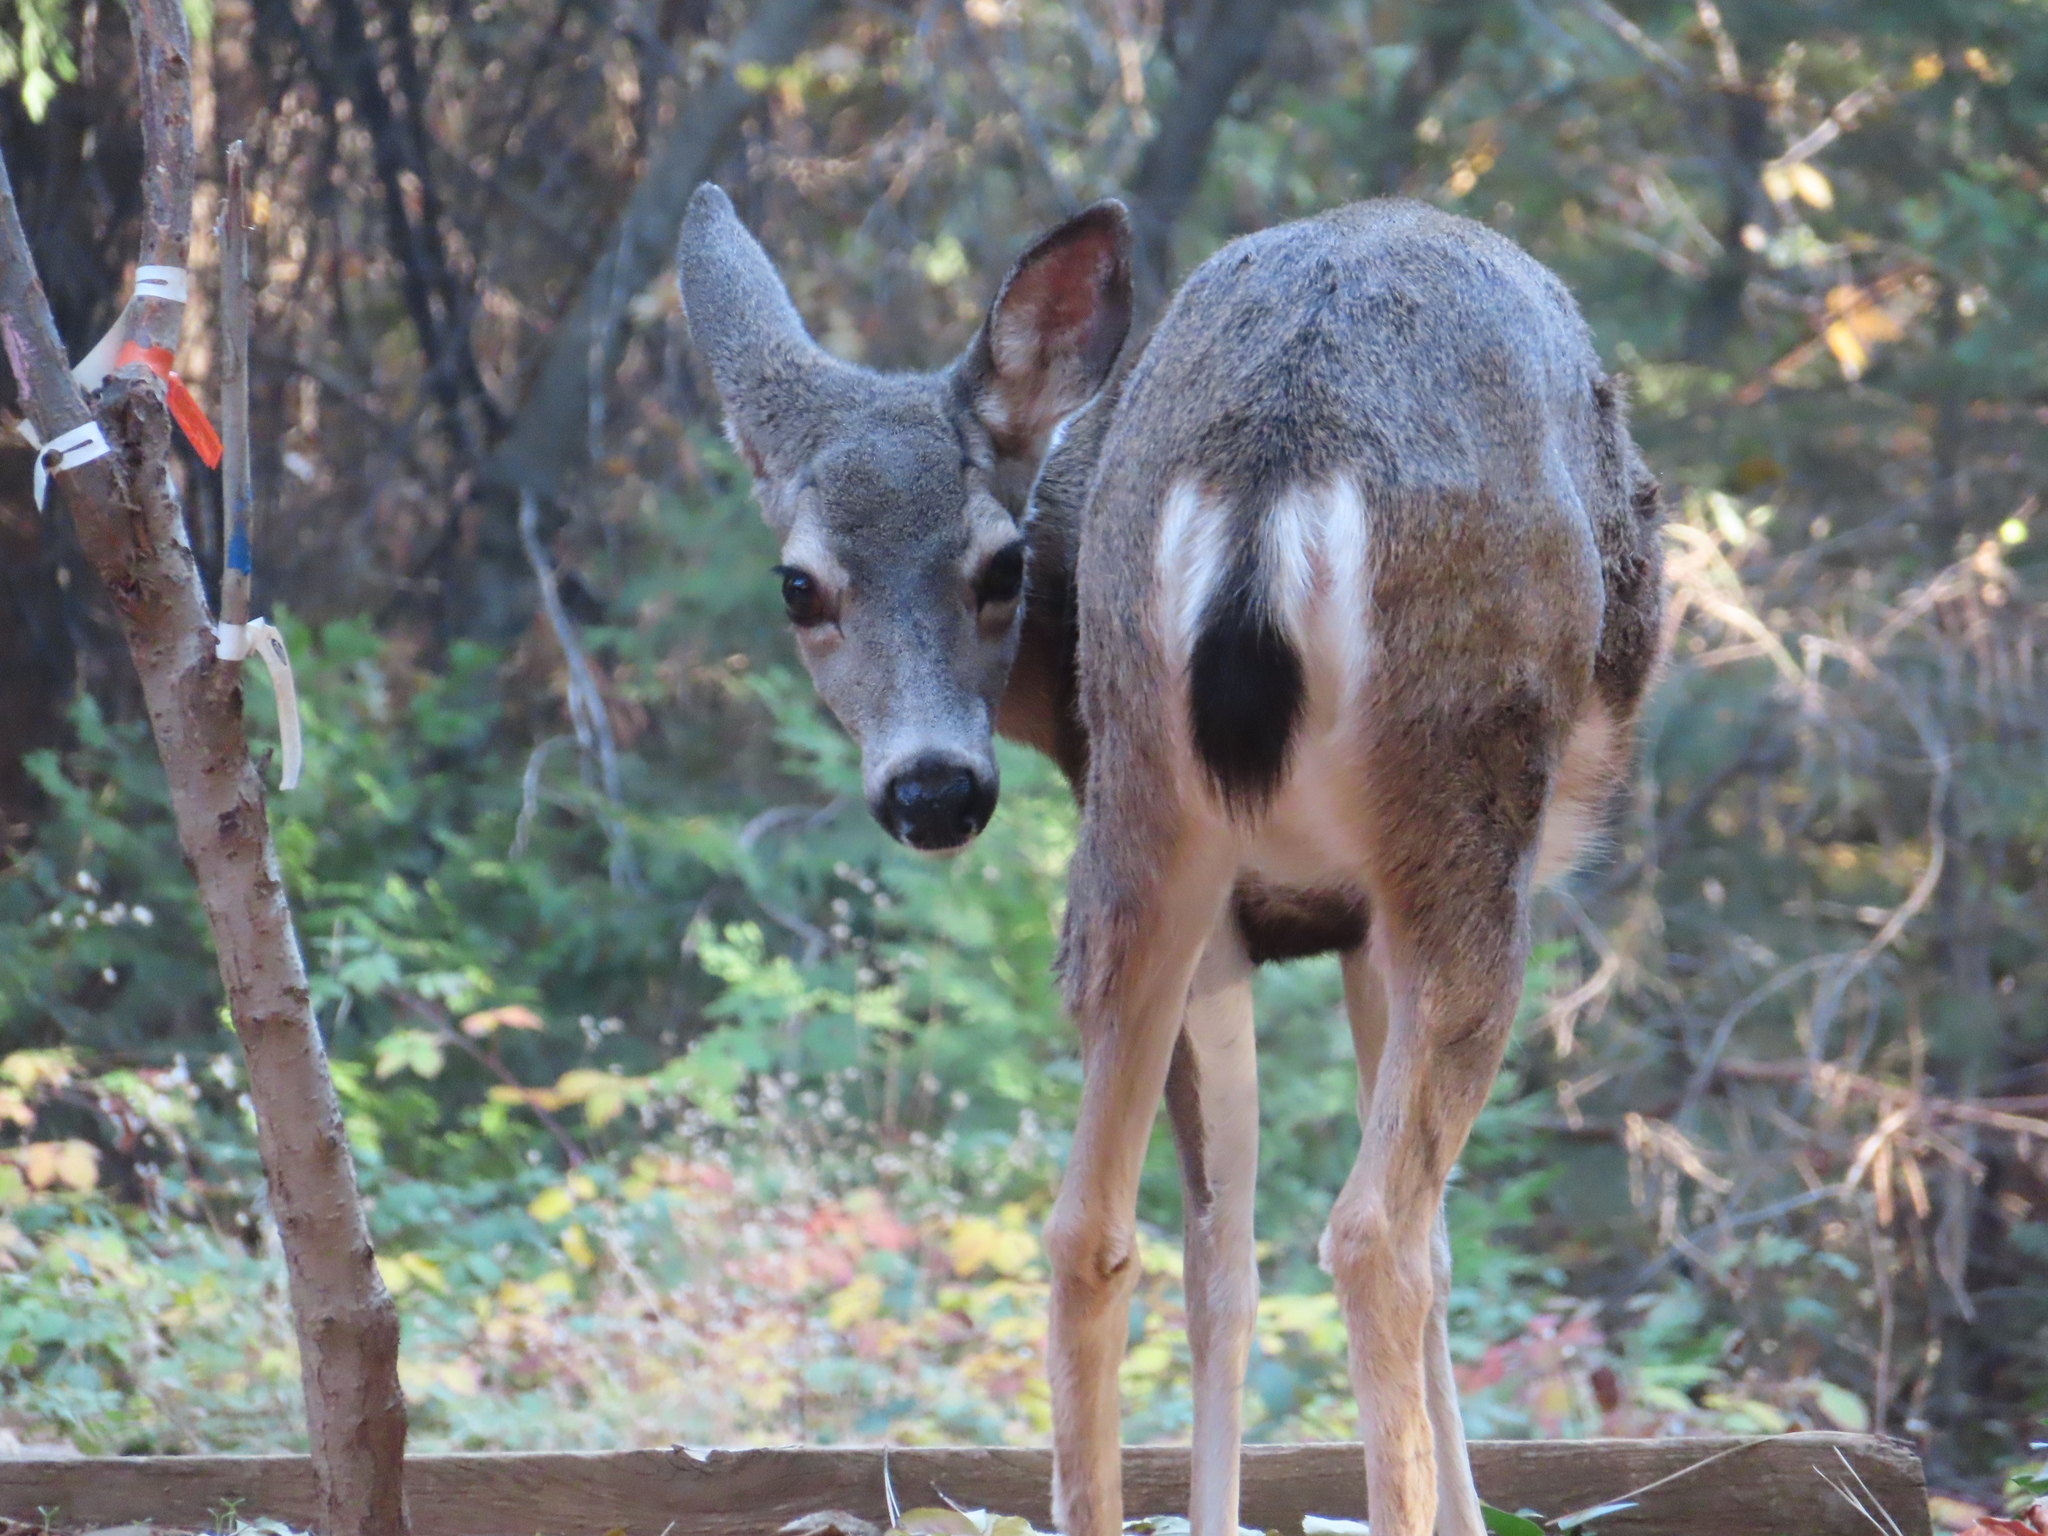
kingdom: Animalia
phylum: Chordata
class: Mammalia
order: Artiodactyla
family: Cervidae
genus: Odocoileus
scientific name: Odocoileus hemionus
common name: Mule deer
